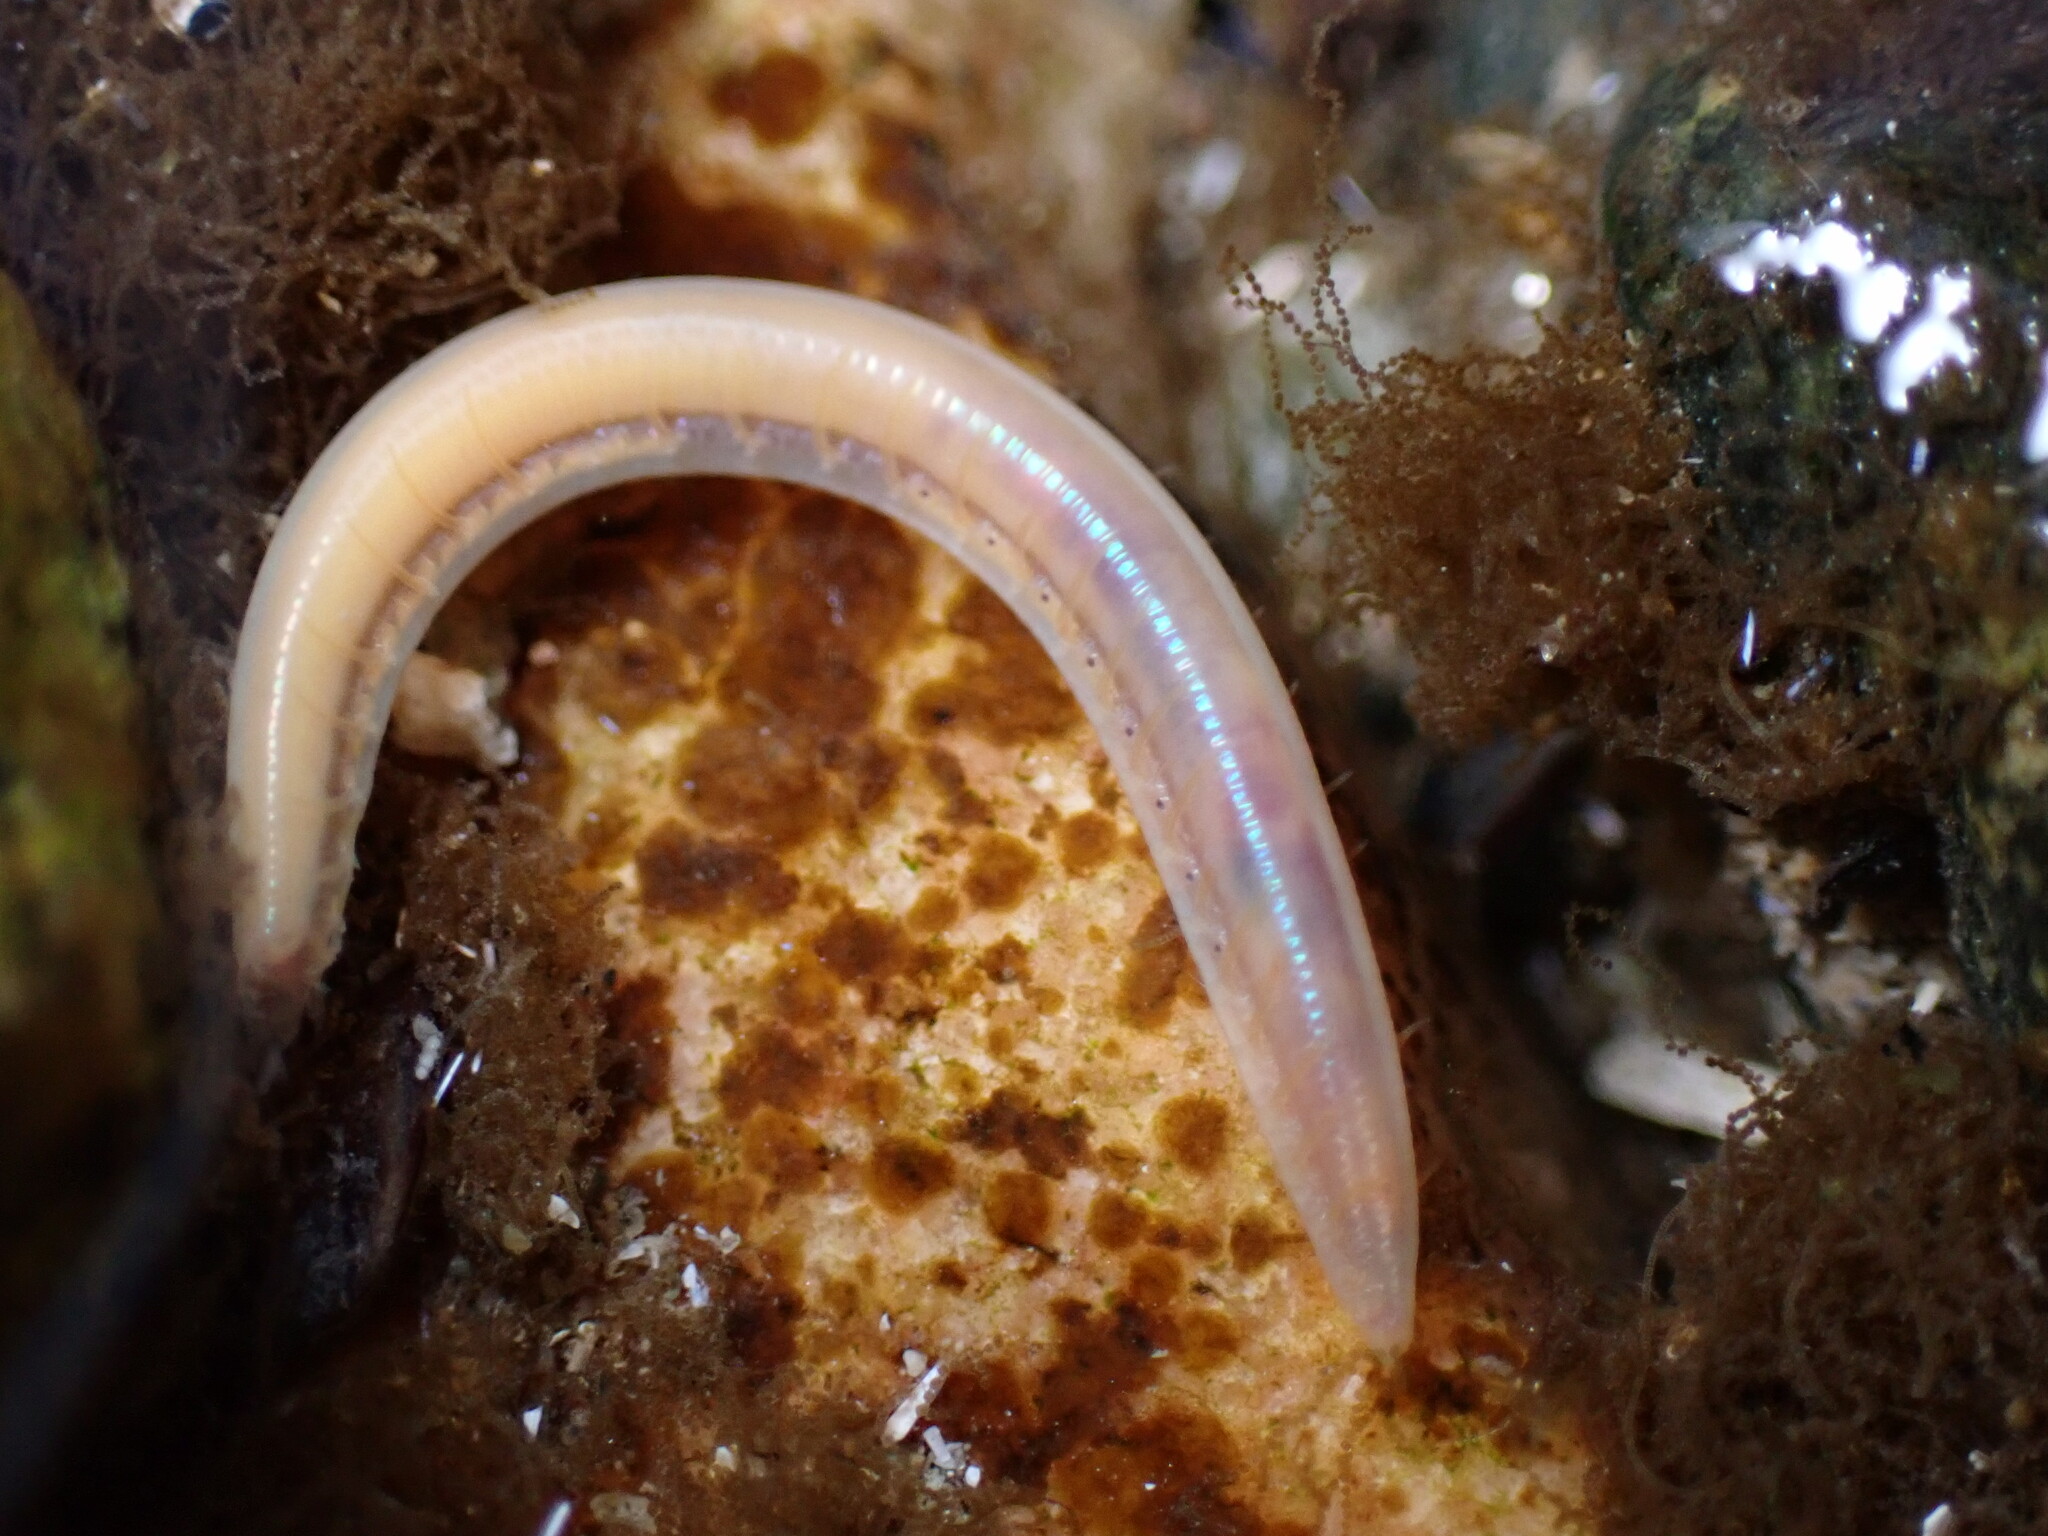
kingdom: Animalia
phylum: Annelida
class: Polychaeta
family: Opheliidae
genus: Armandia
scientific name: Armandia brevis
